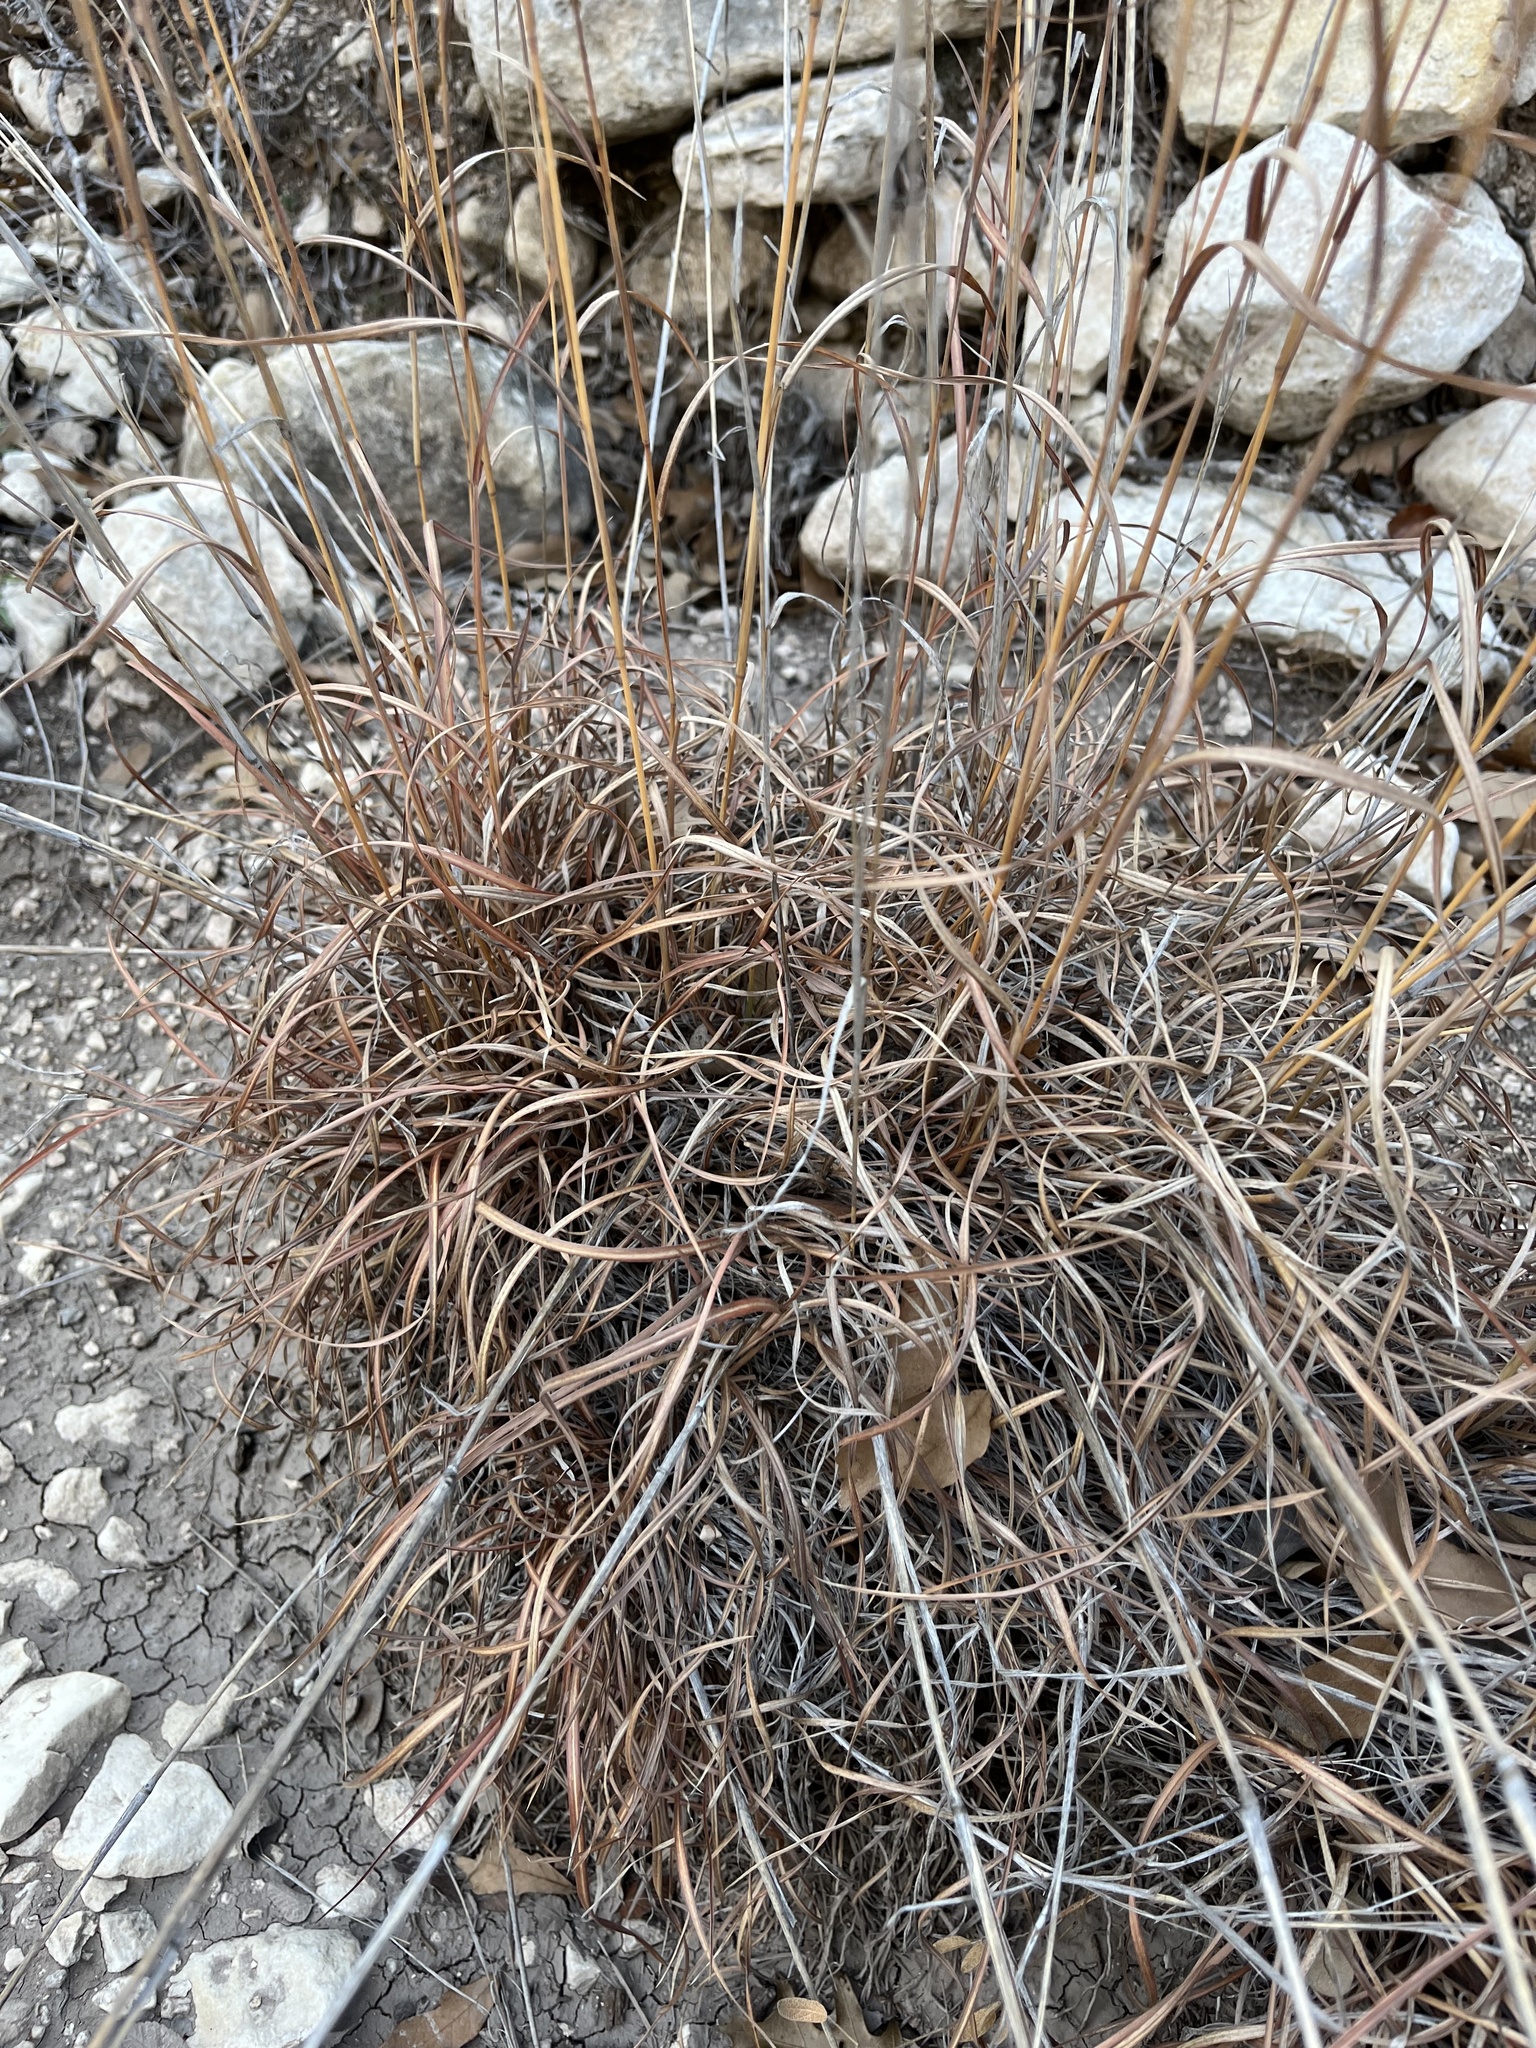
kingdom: Plantae
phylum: Tracheophyta
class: Liliopsida
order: Poales
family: Poaceae
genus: Schizachyrium
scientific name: Schizachyrium scoparium
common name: Little bluestem
